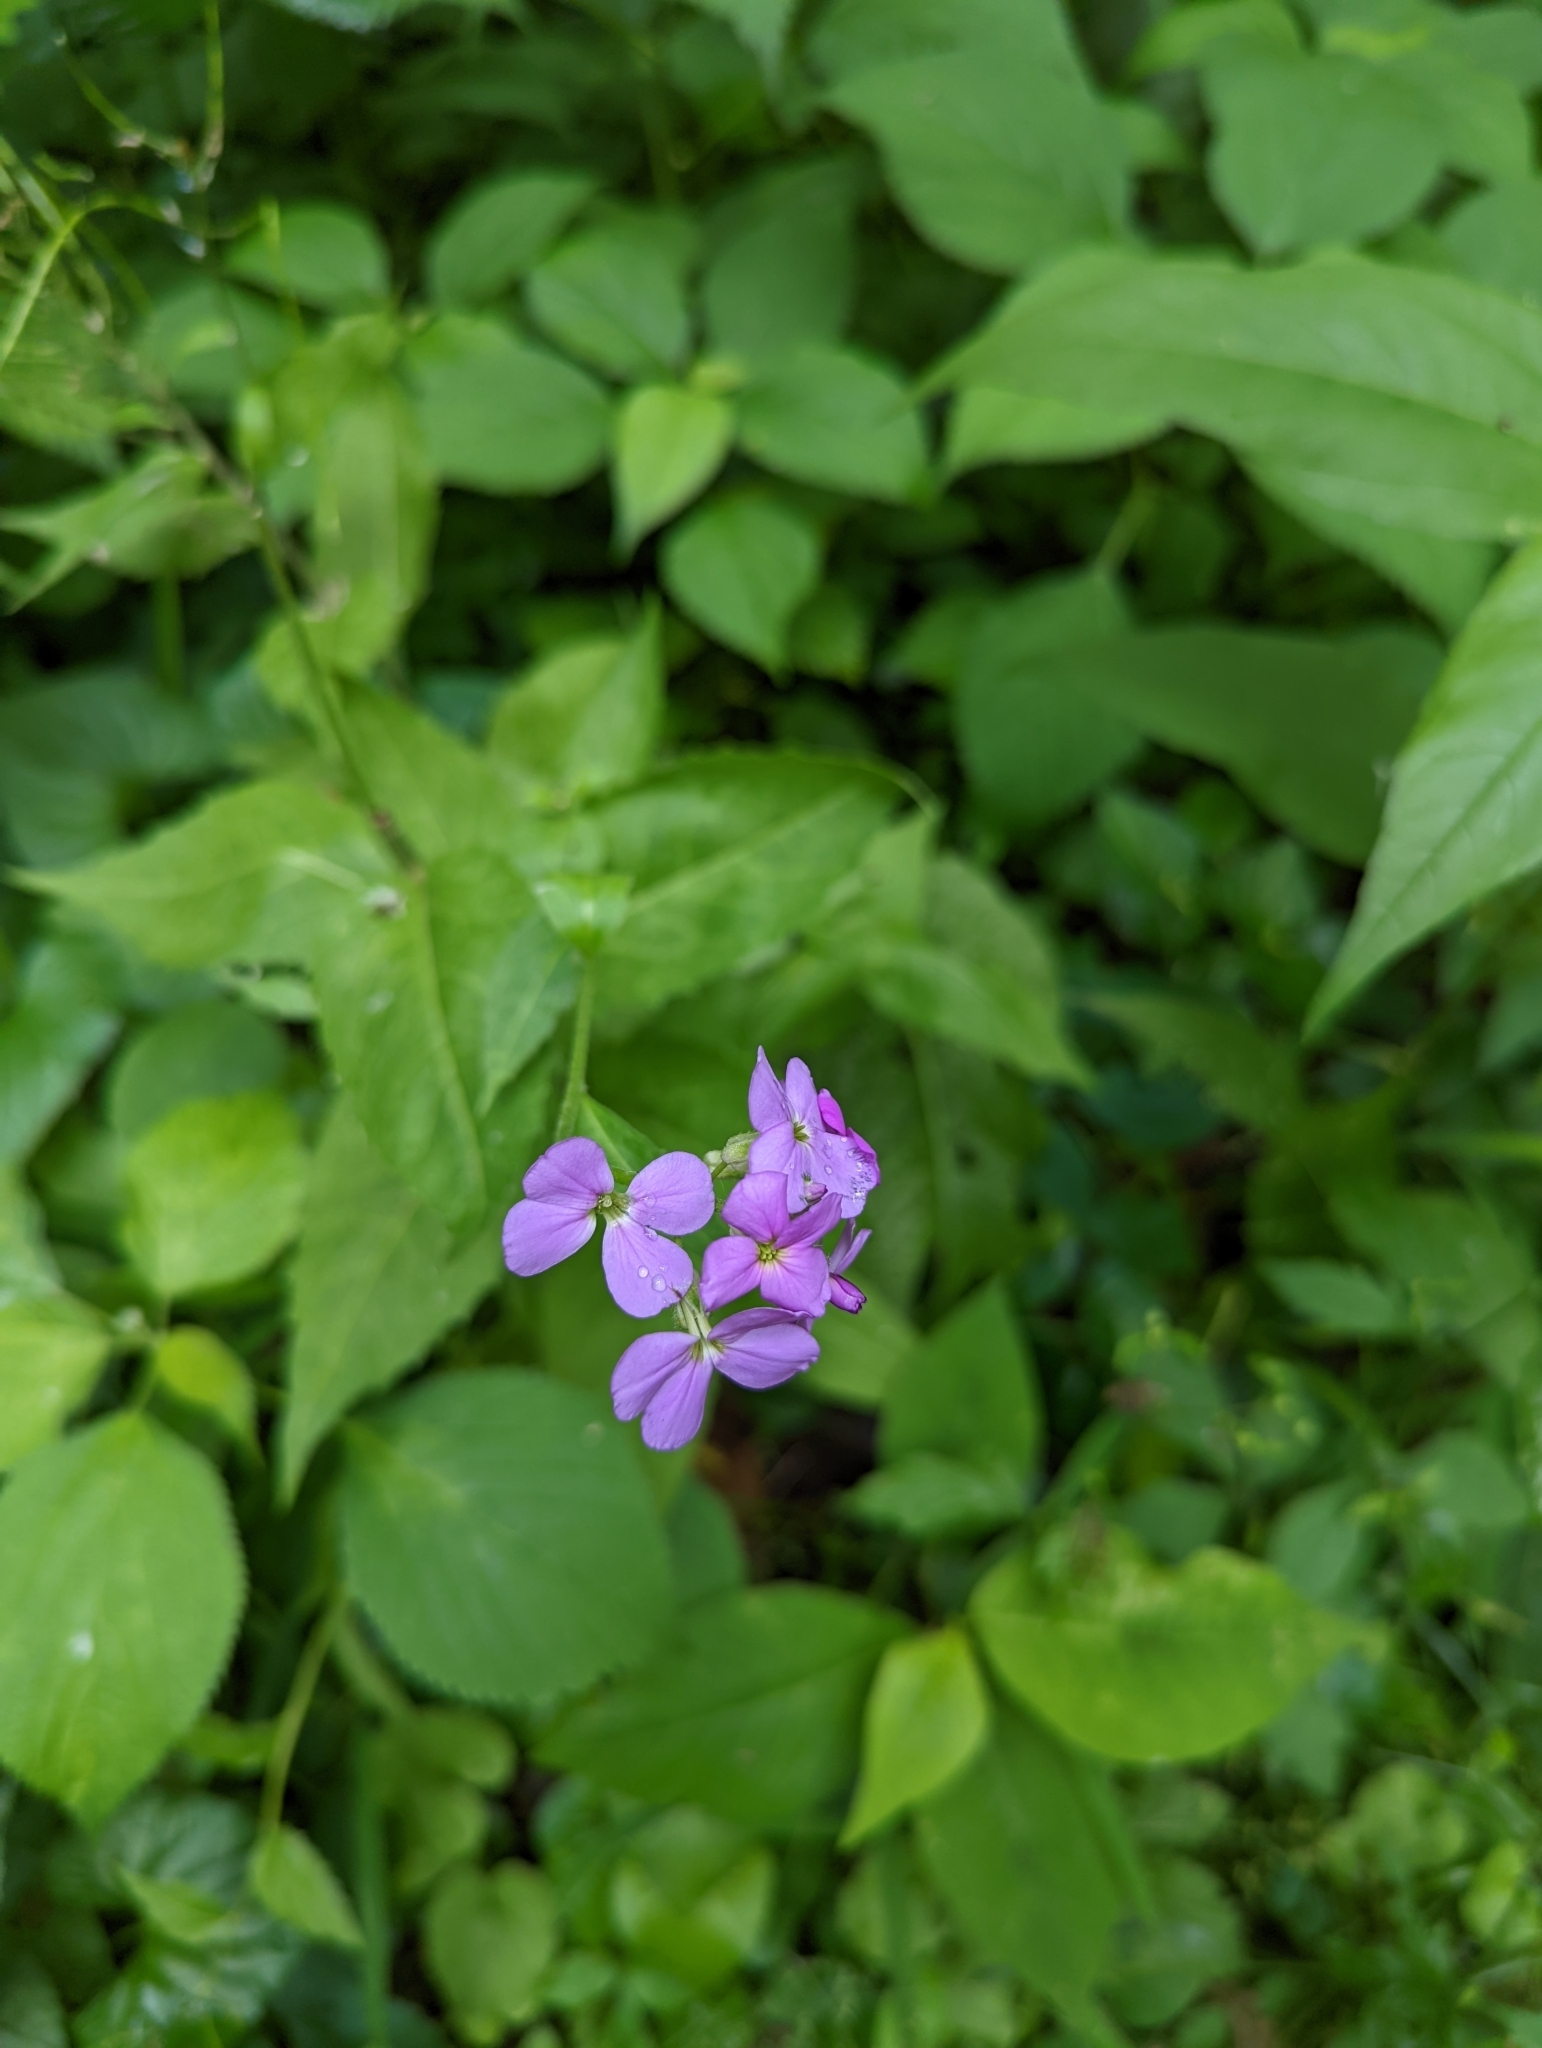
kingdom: Plantae
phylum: Tracheophyta
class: Magnoliopsida
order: Brassicales
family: Brassicaceae
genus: Hesperis
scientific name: Hesperis matronalis
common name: Dame's-violet
